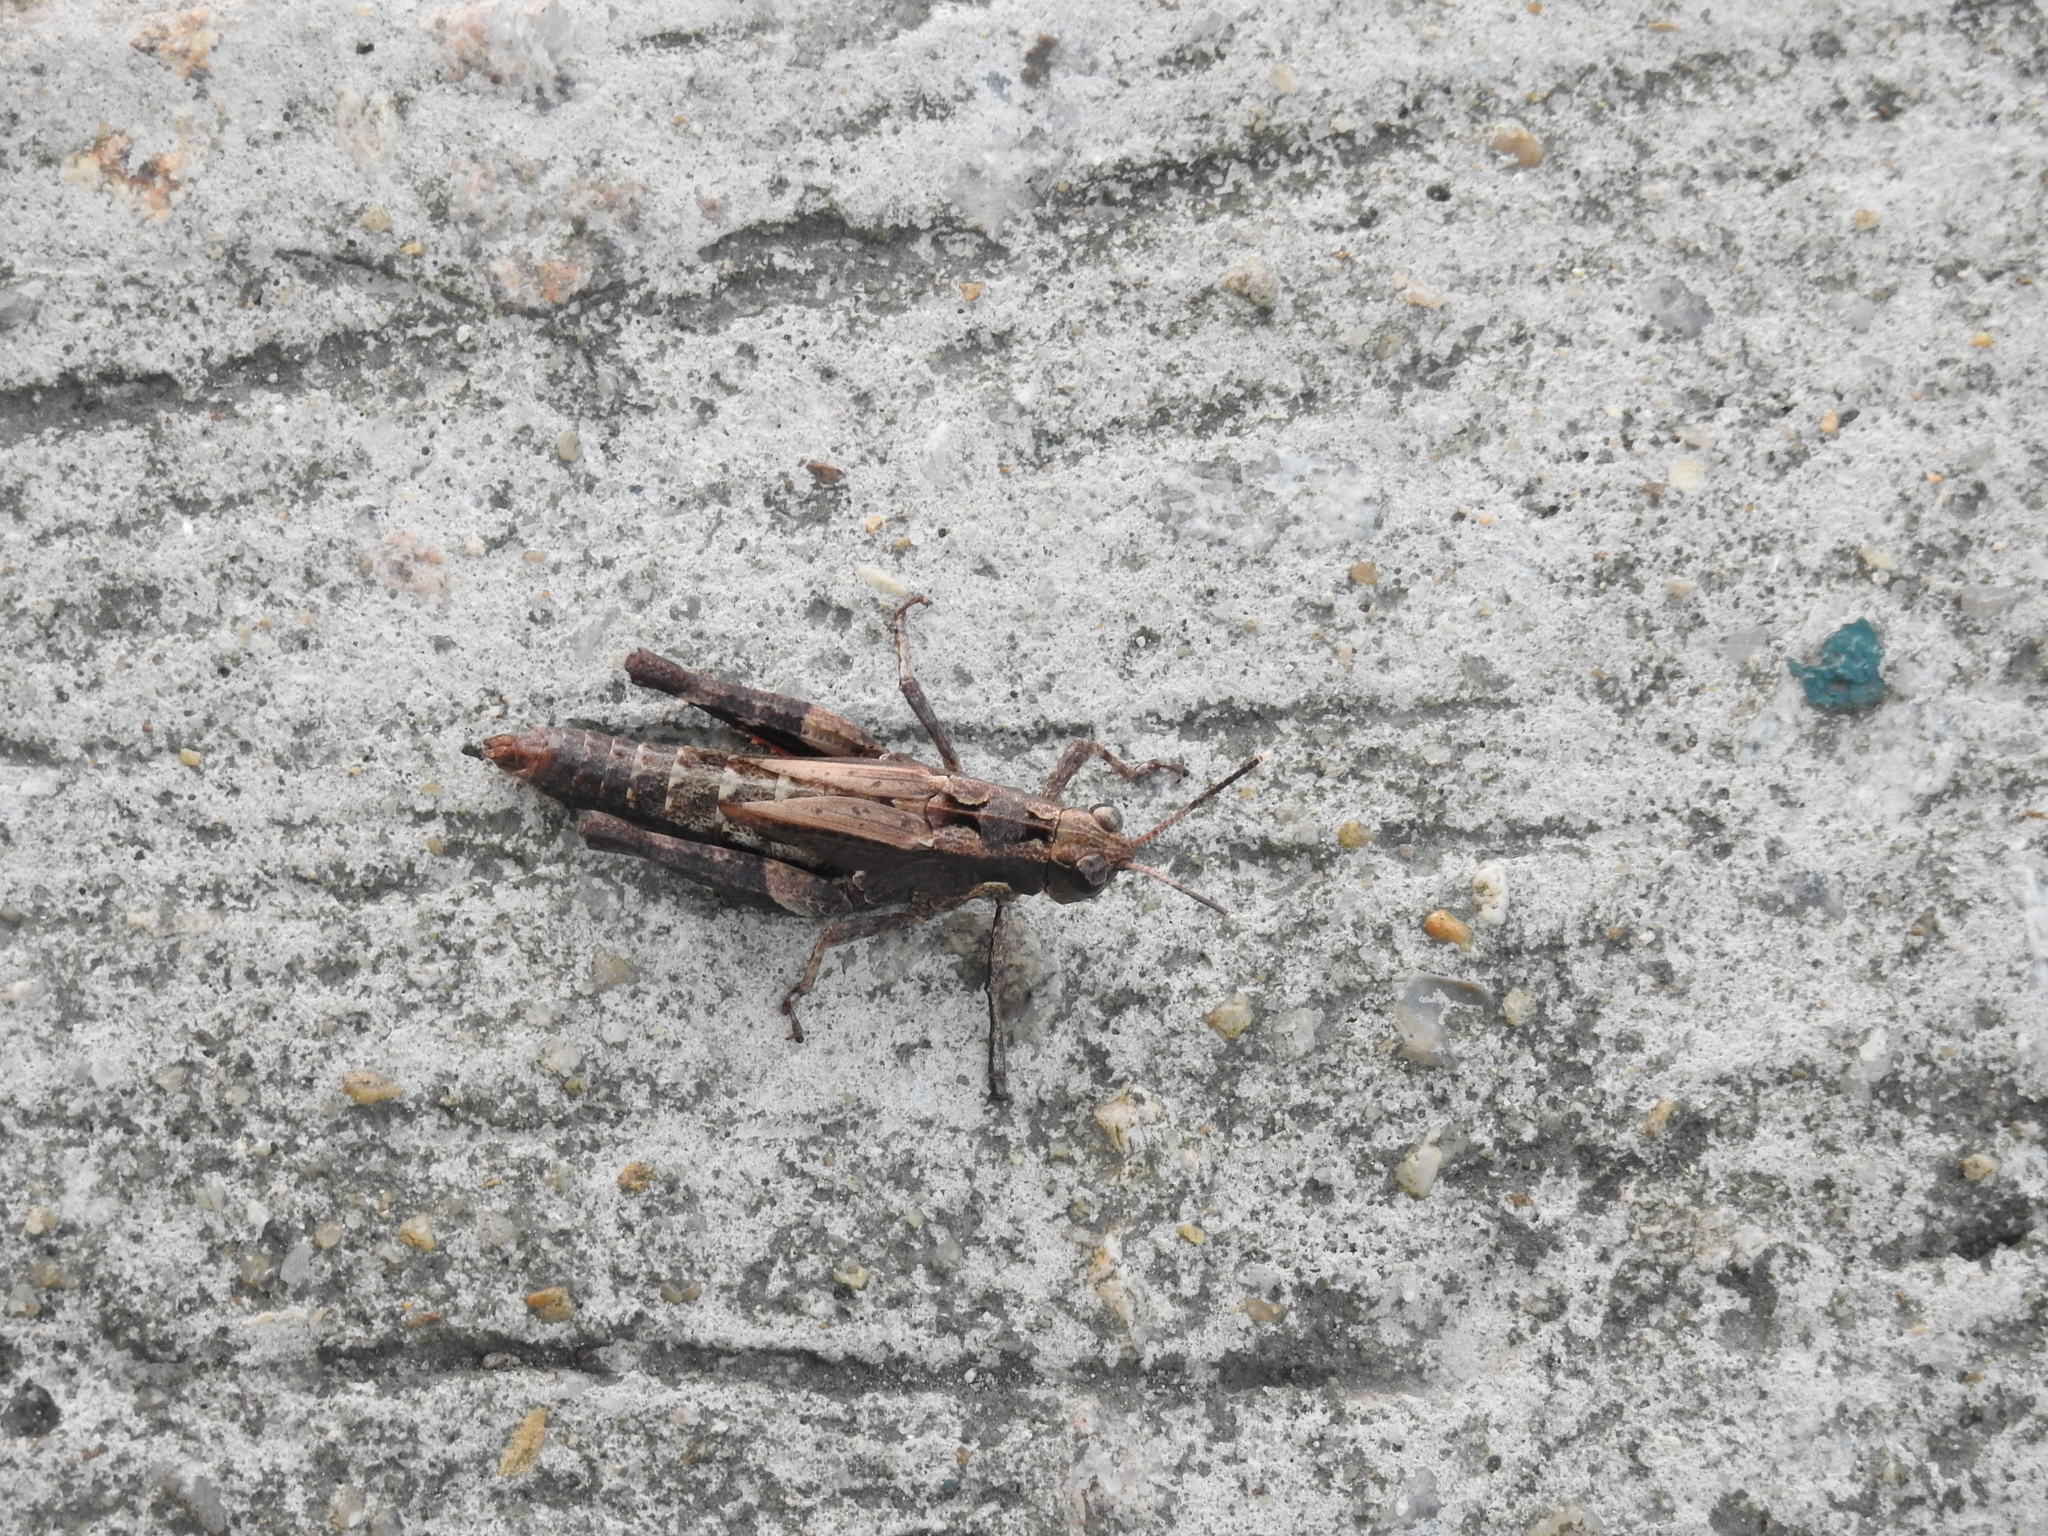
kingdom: Animalia
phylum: Arthropoda
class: Insecta
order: Orthoptera
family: Acrididae
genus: Traulia
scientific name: Traulia orientalis
